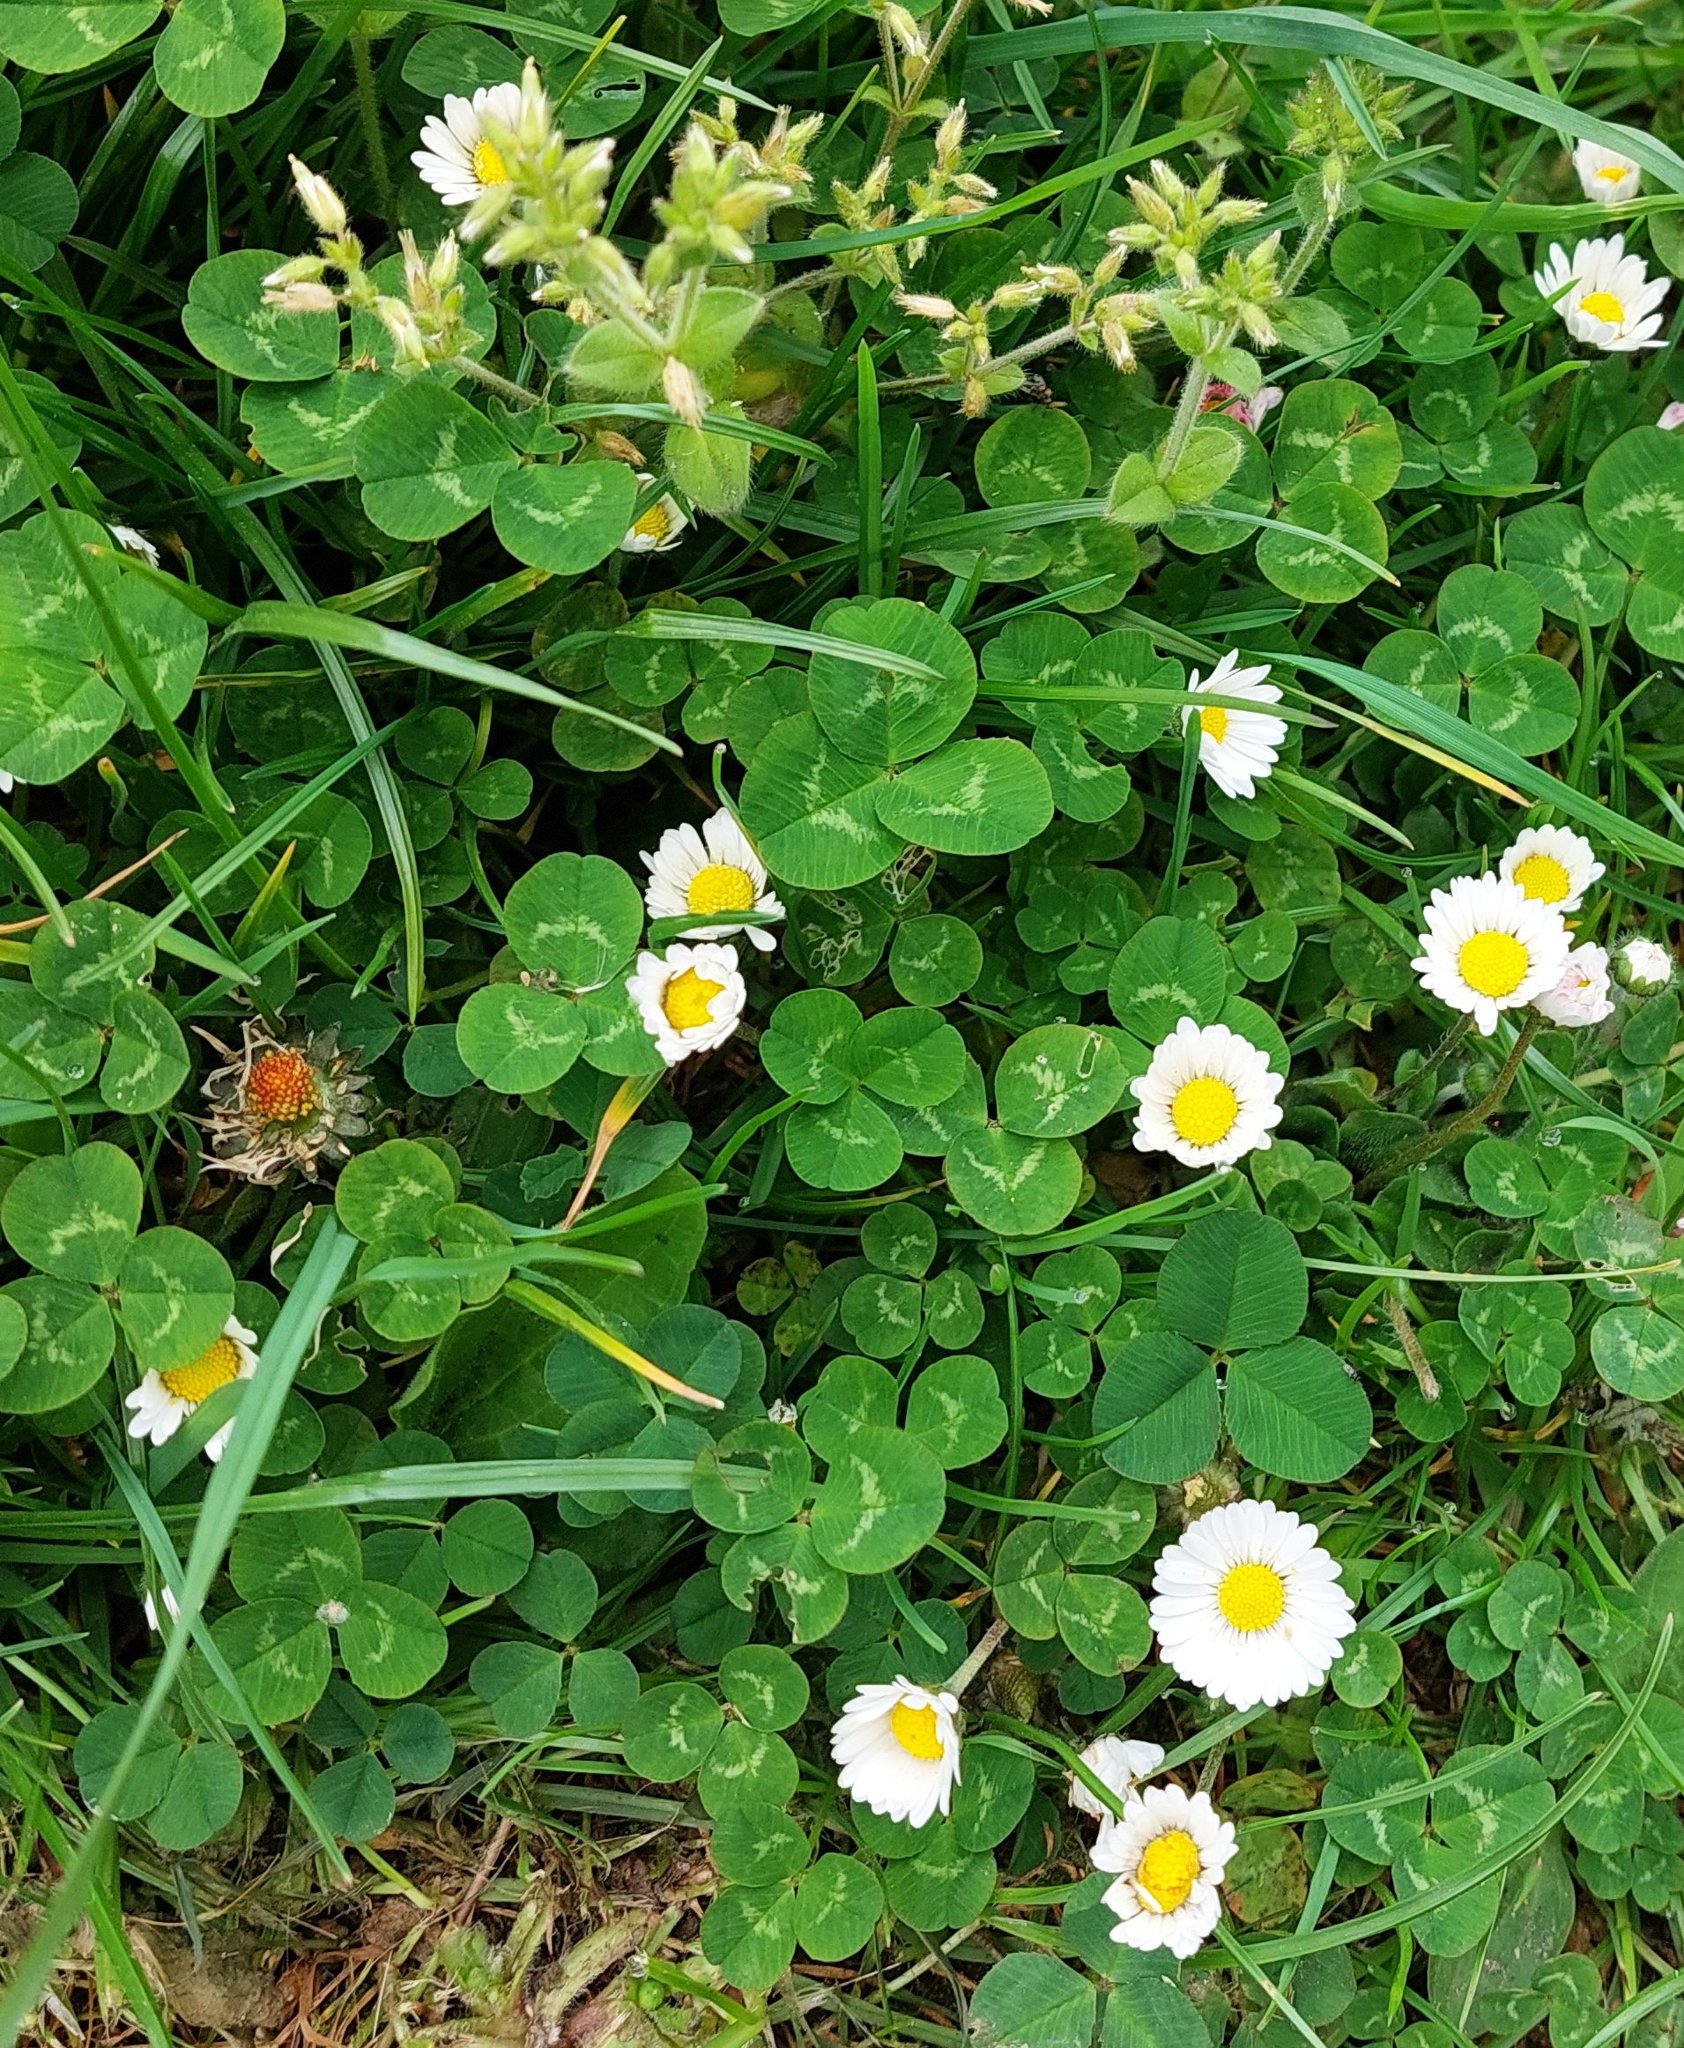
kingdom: Plantae
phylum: Tracheophyta
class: Magnoliopsida
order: Fabales
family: Fabaceae
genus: Trifolium
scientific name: Trifolium repens
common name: White clover
